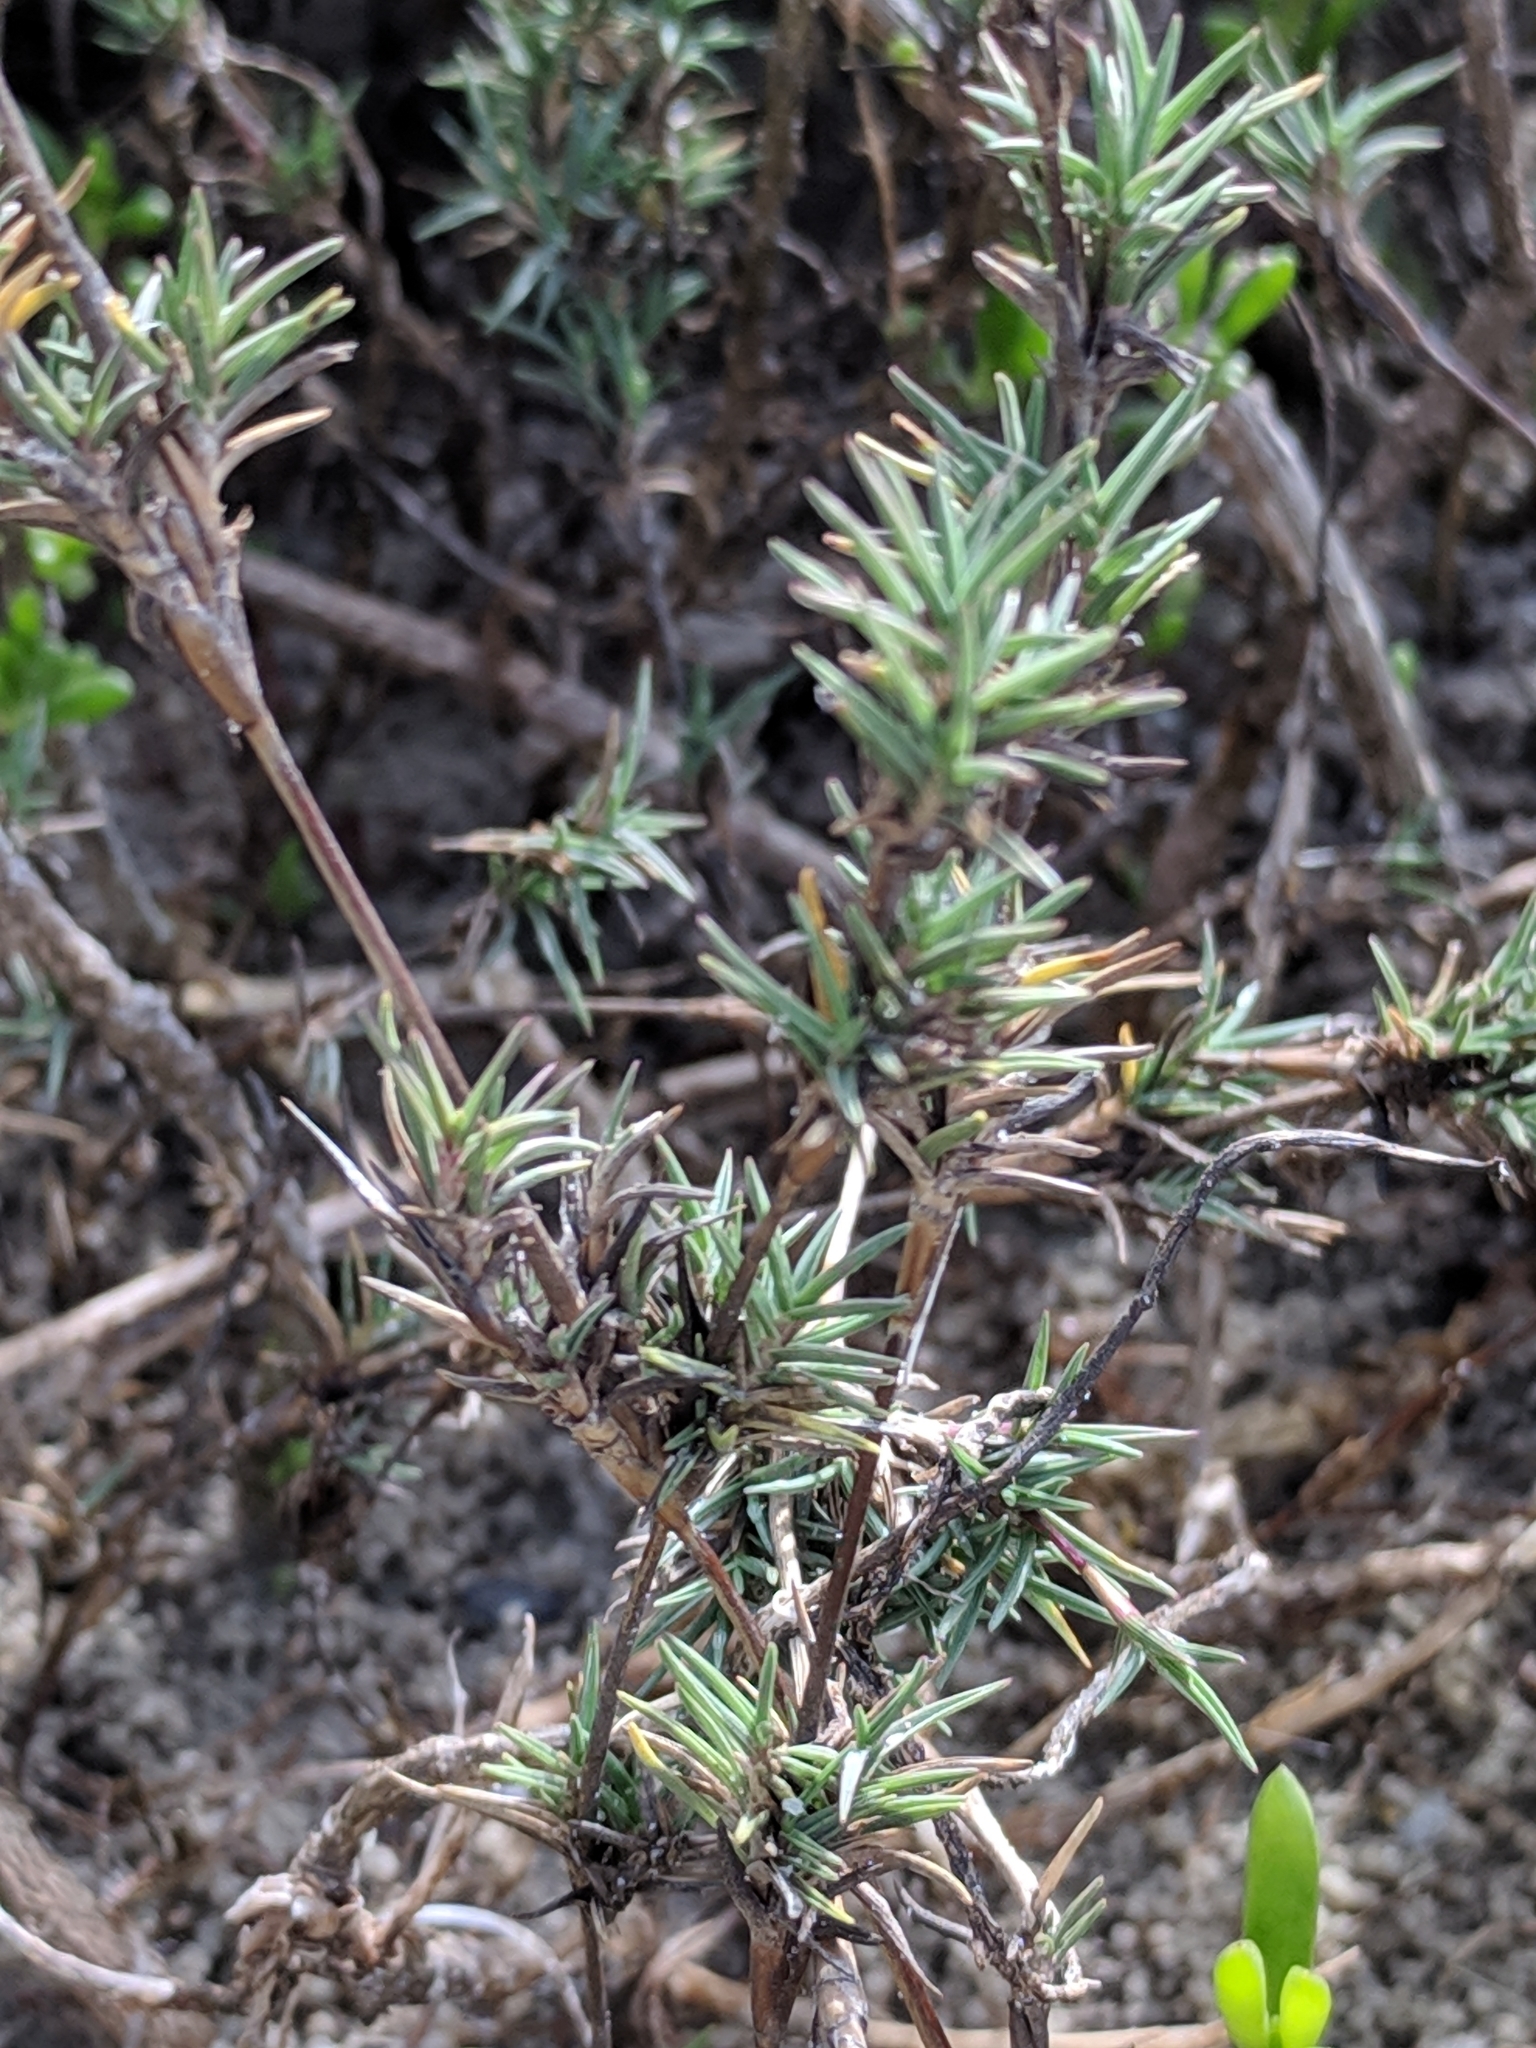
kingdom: Plantae
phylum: Tracheophyta
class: Liliopsida
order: Poales
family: Poaceae
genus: Distichlis
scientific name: Distichlis littoralis
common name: Shore grass
